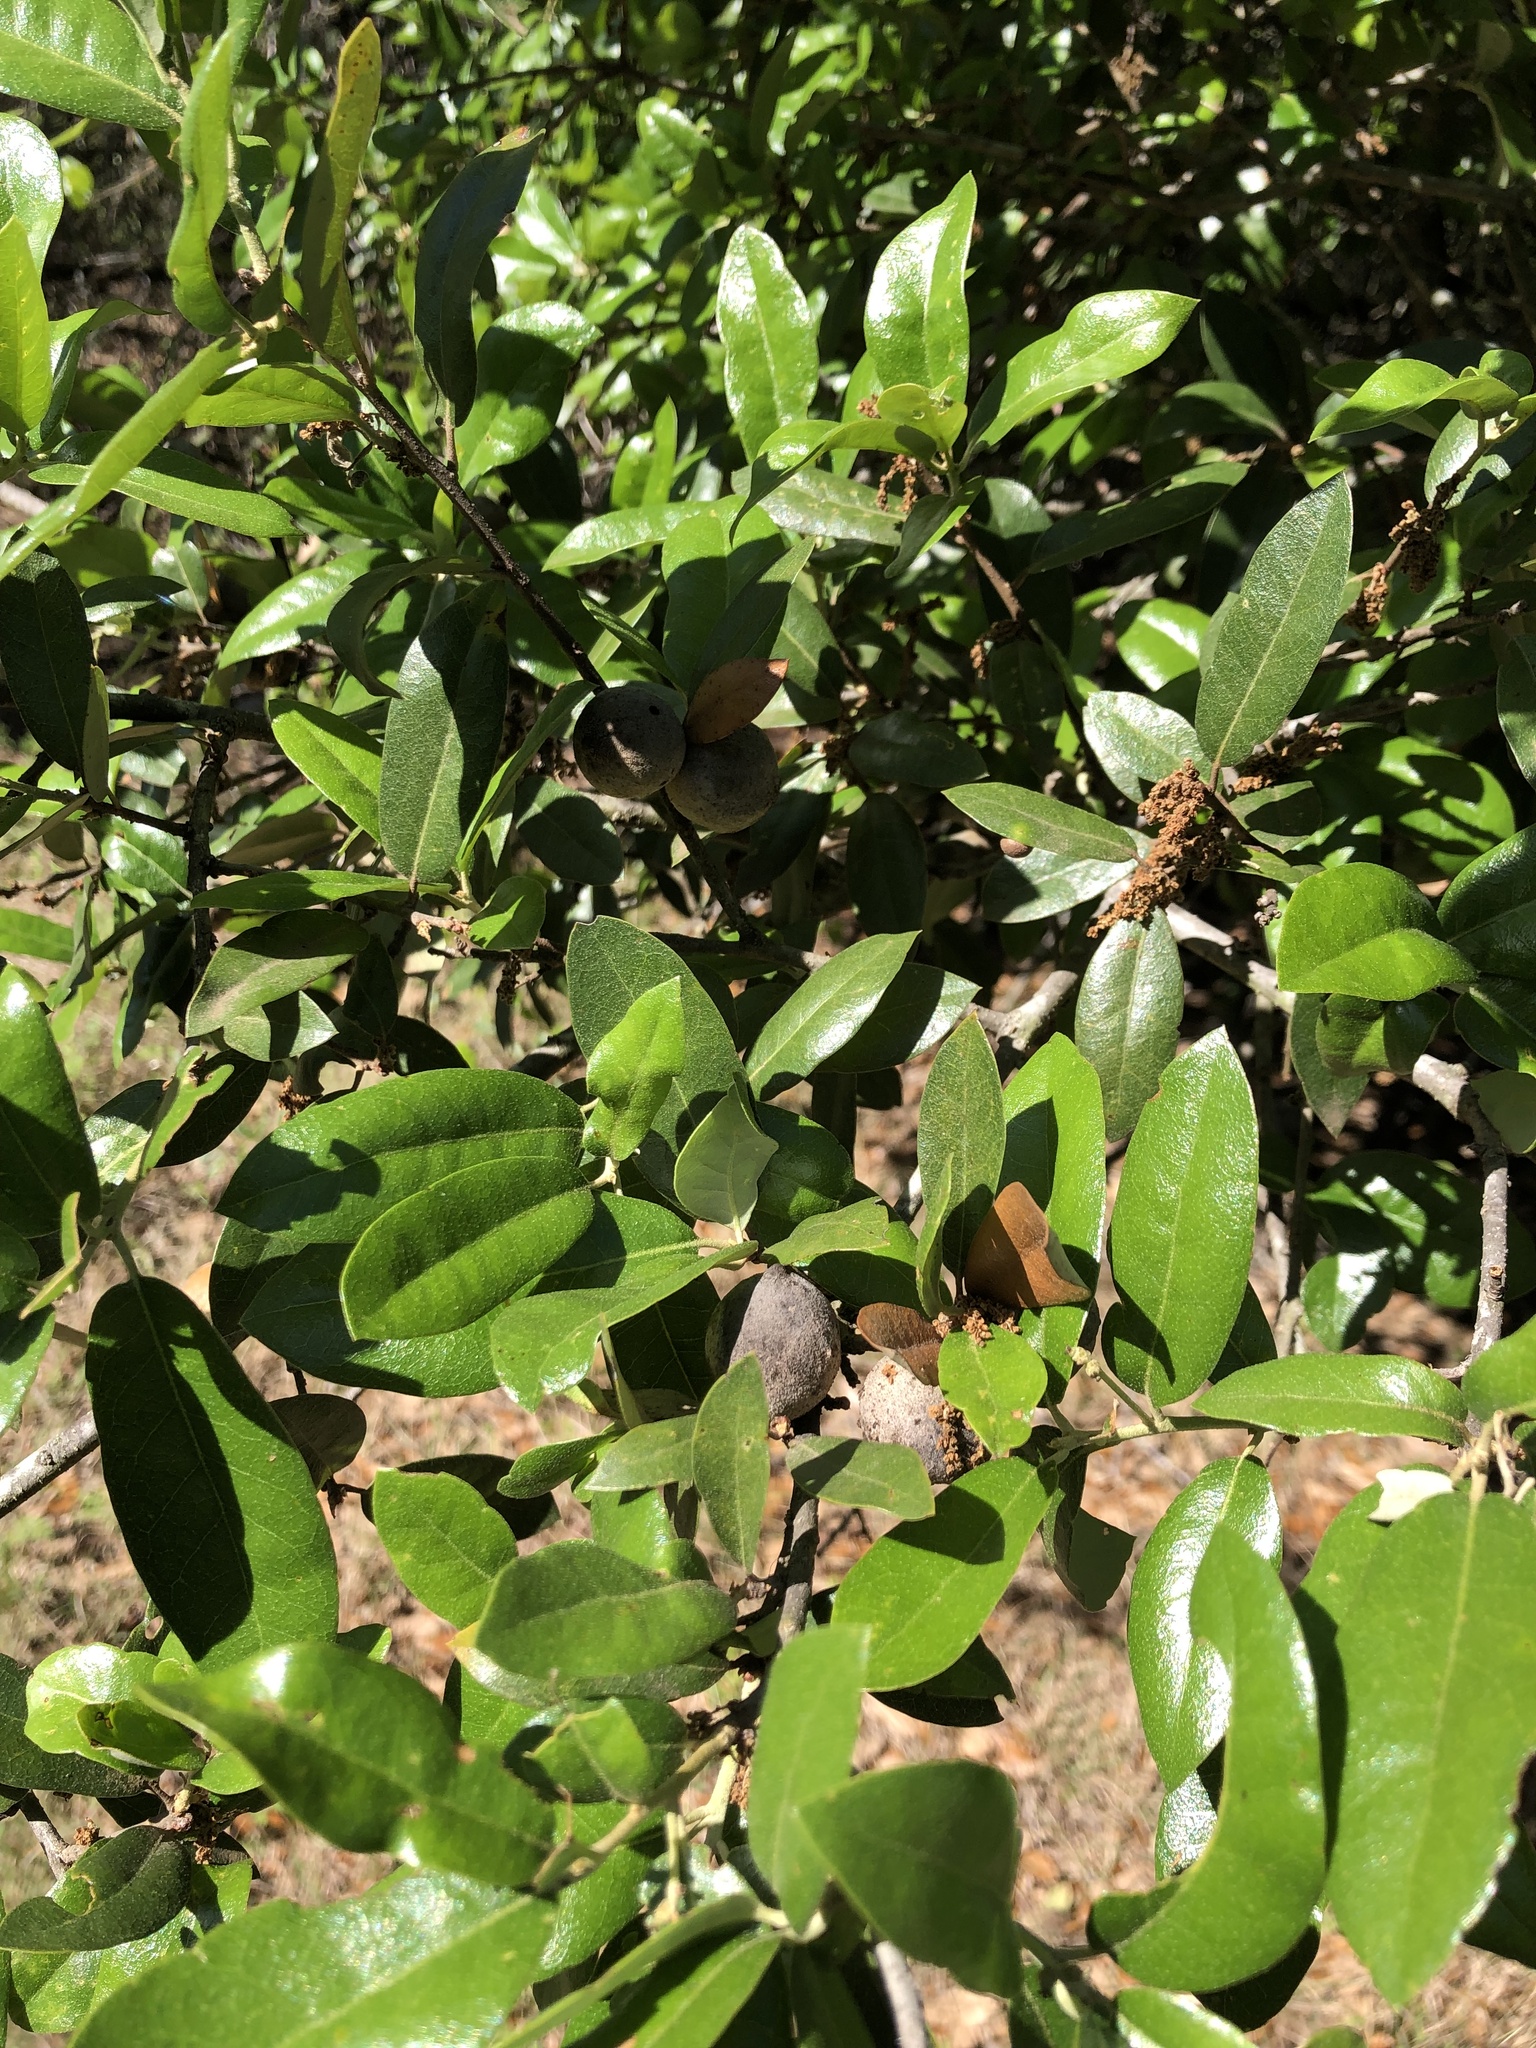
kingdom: Plantae
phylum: Tracheophyta
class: Magnoliopsida
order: Fagales
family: Fagaceae
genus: Quercus
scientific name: Quercus fusiformis
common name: Texas live oak
